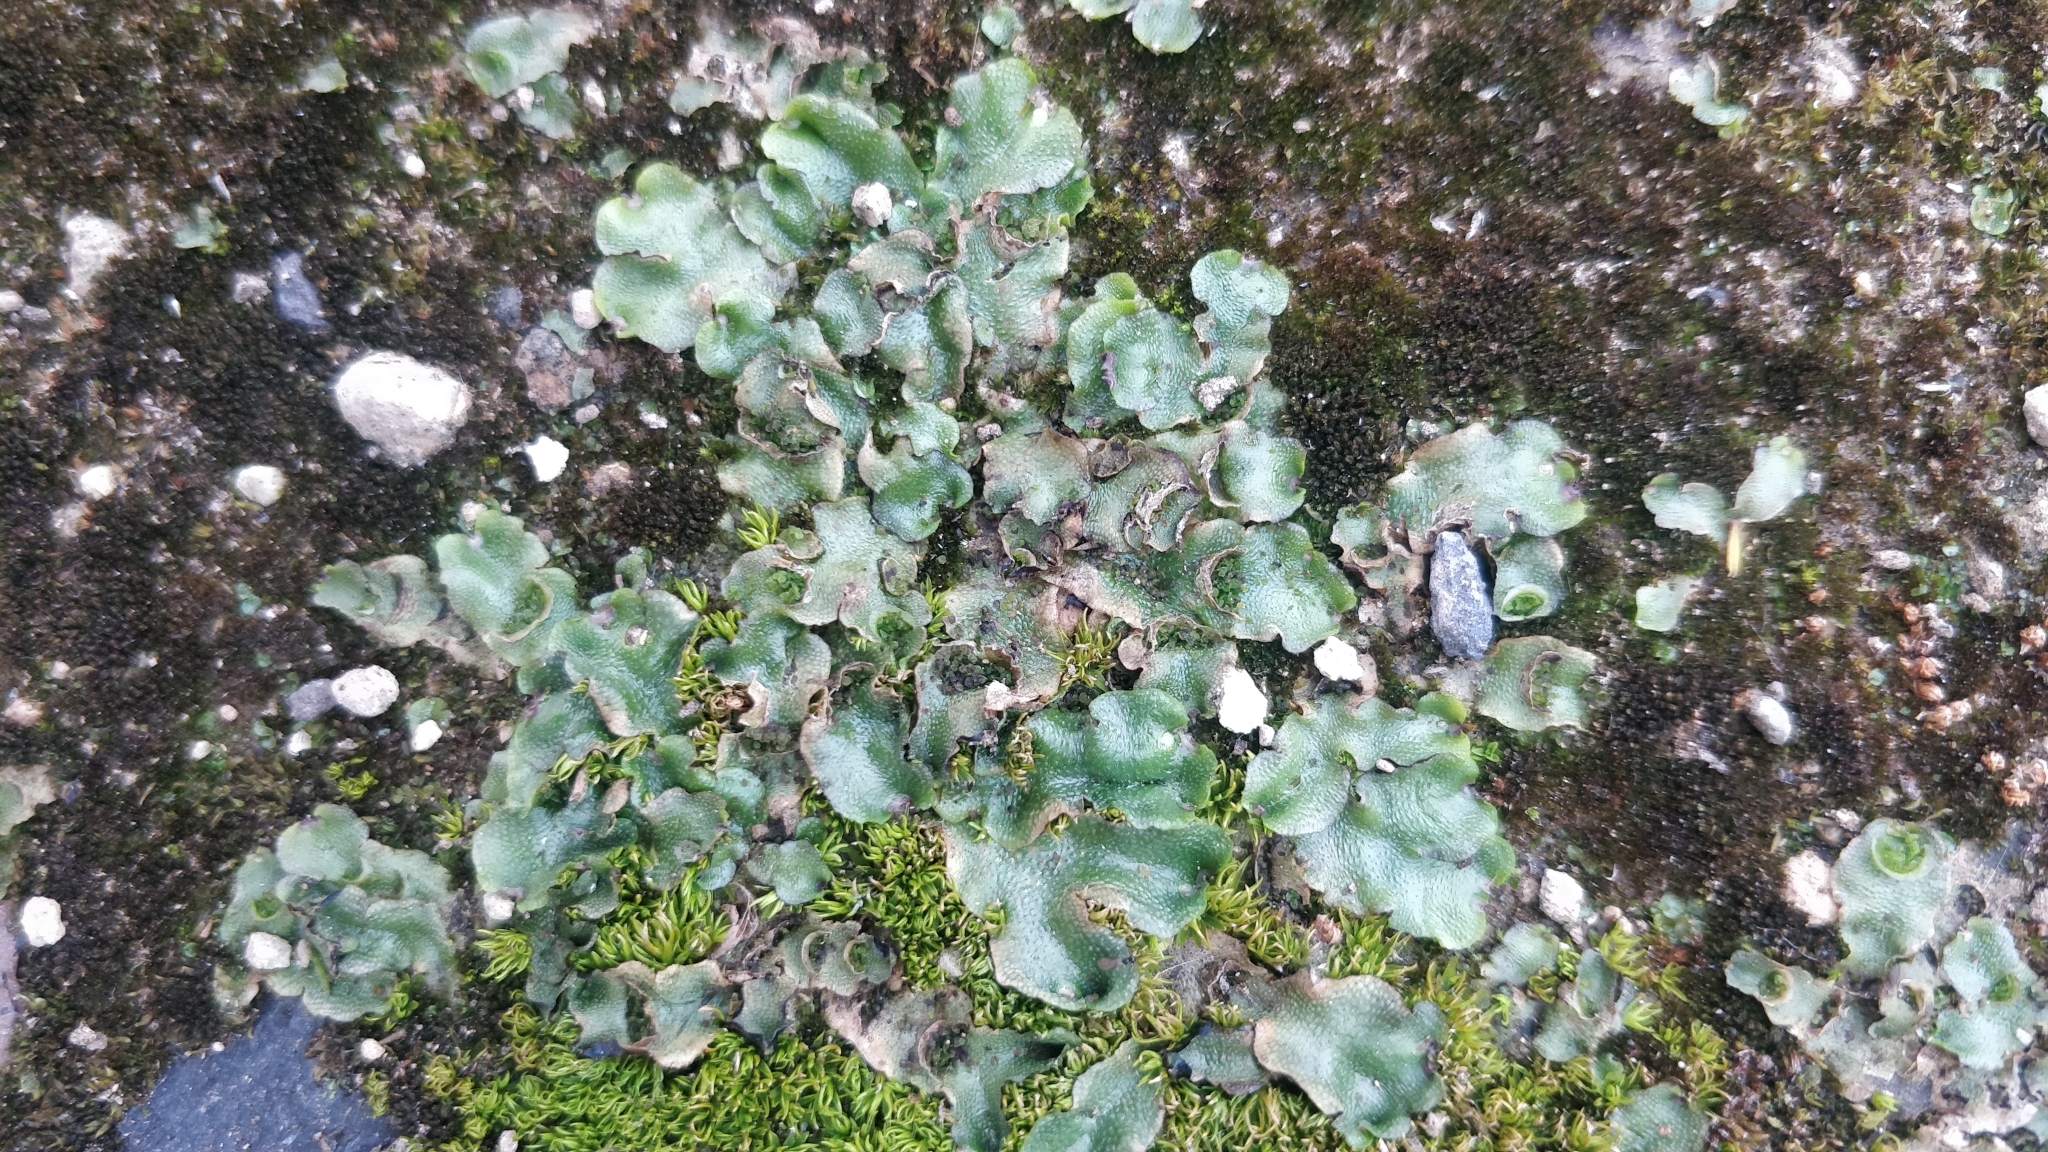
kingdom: Plantae
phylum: Marchantiophyta
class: Marchantiopsida
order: Lunulariales
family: Lunulariaceae
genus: Lunularia
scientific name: Lunularia cruciata
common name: Crescent-cup liverwort
